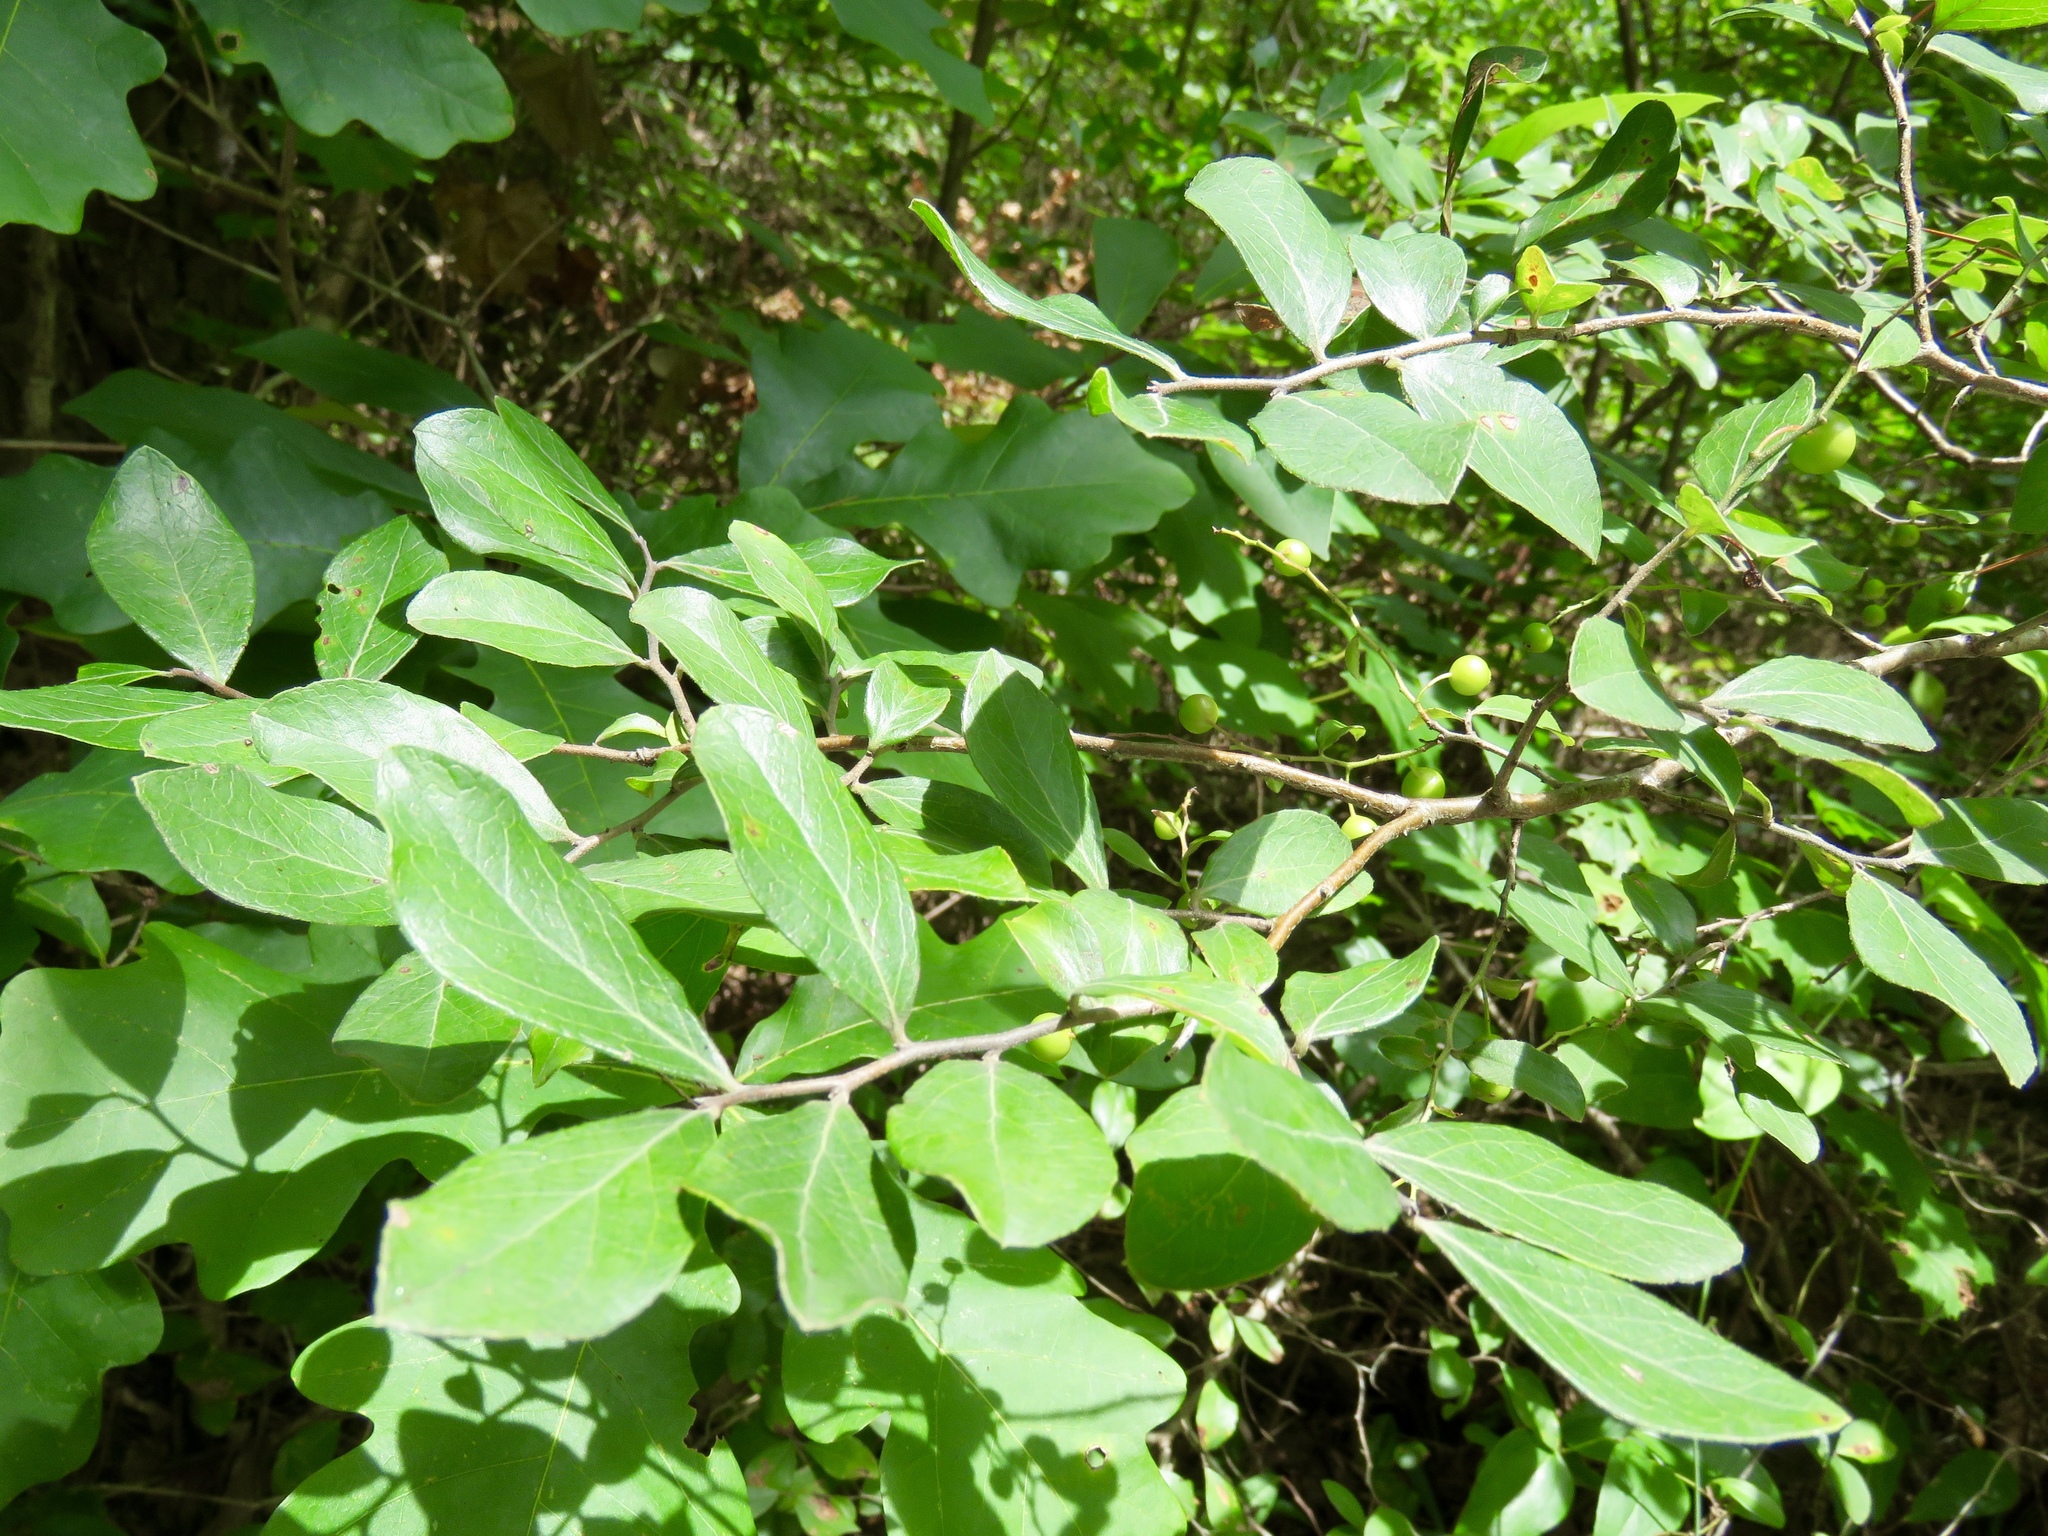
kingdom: Plantae
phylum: Tracheophyta
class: Magnoliopsida
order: Ericales
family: Ericaceae
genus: Vaccinium
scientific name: Vaccinium arboreum
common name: Farkleberry
